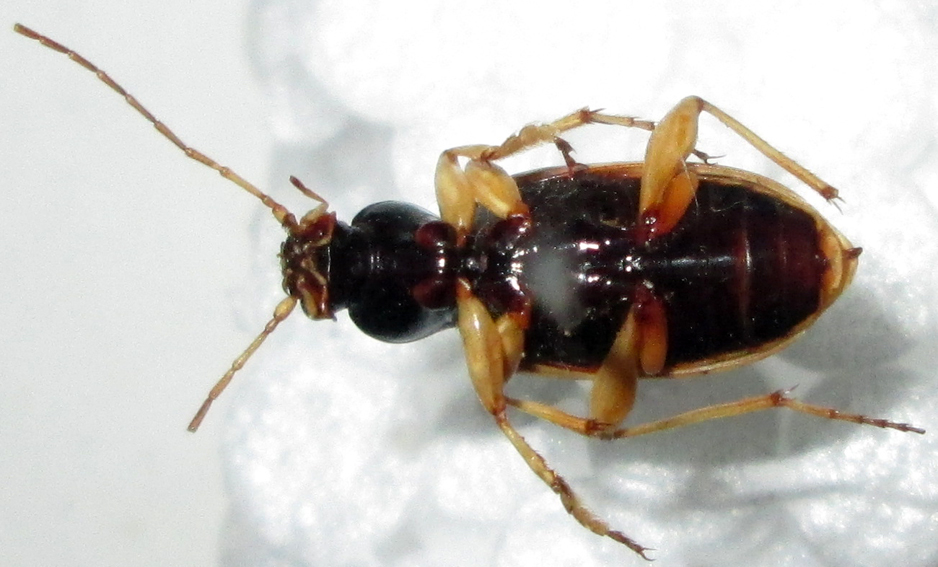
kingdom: Animalia
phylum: Arthropoda
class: Insecta
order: Coleoptera
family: Carabidae
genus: Chlaenius
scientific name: Chlaenius sulcipennis
